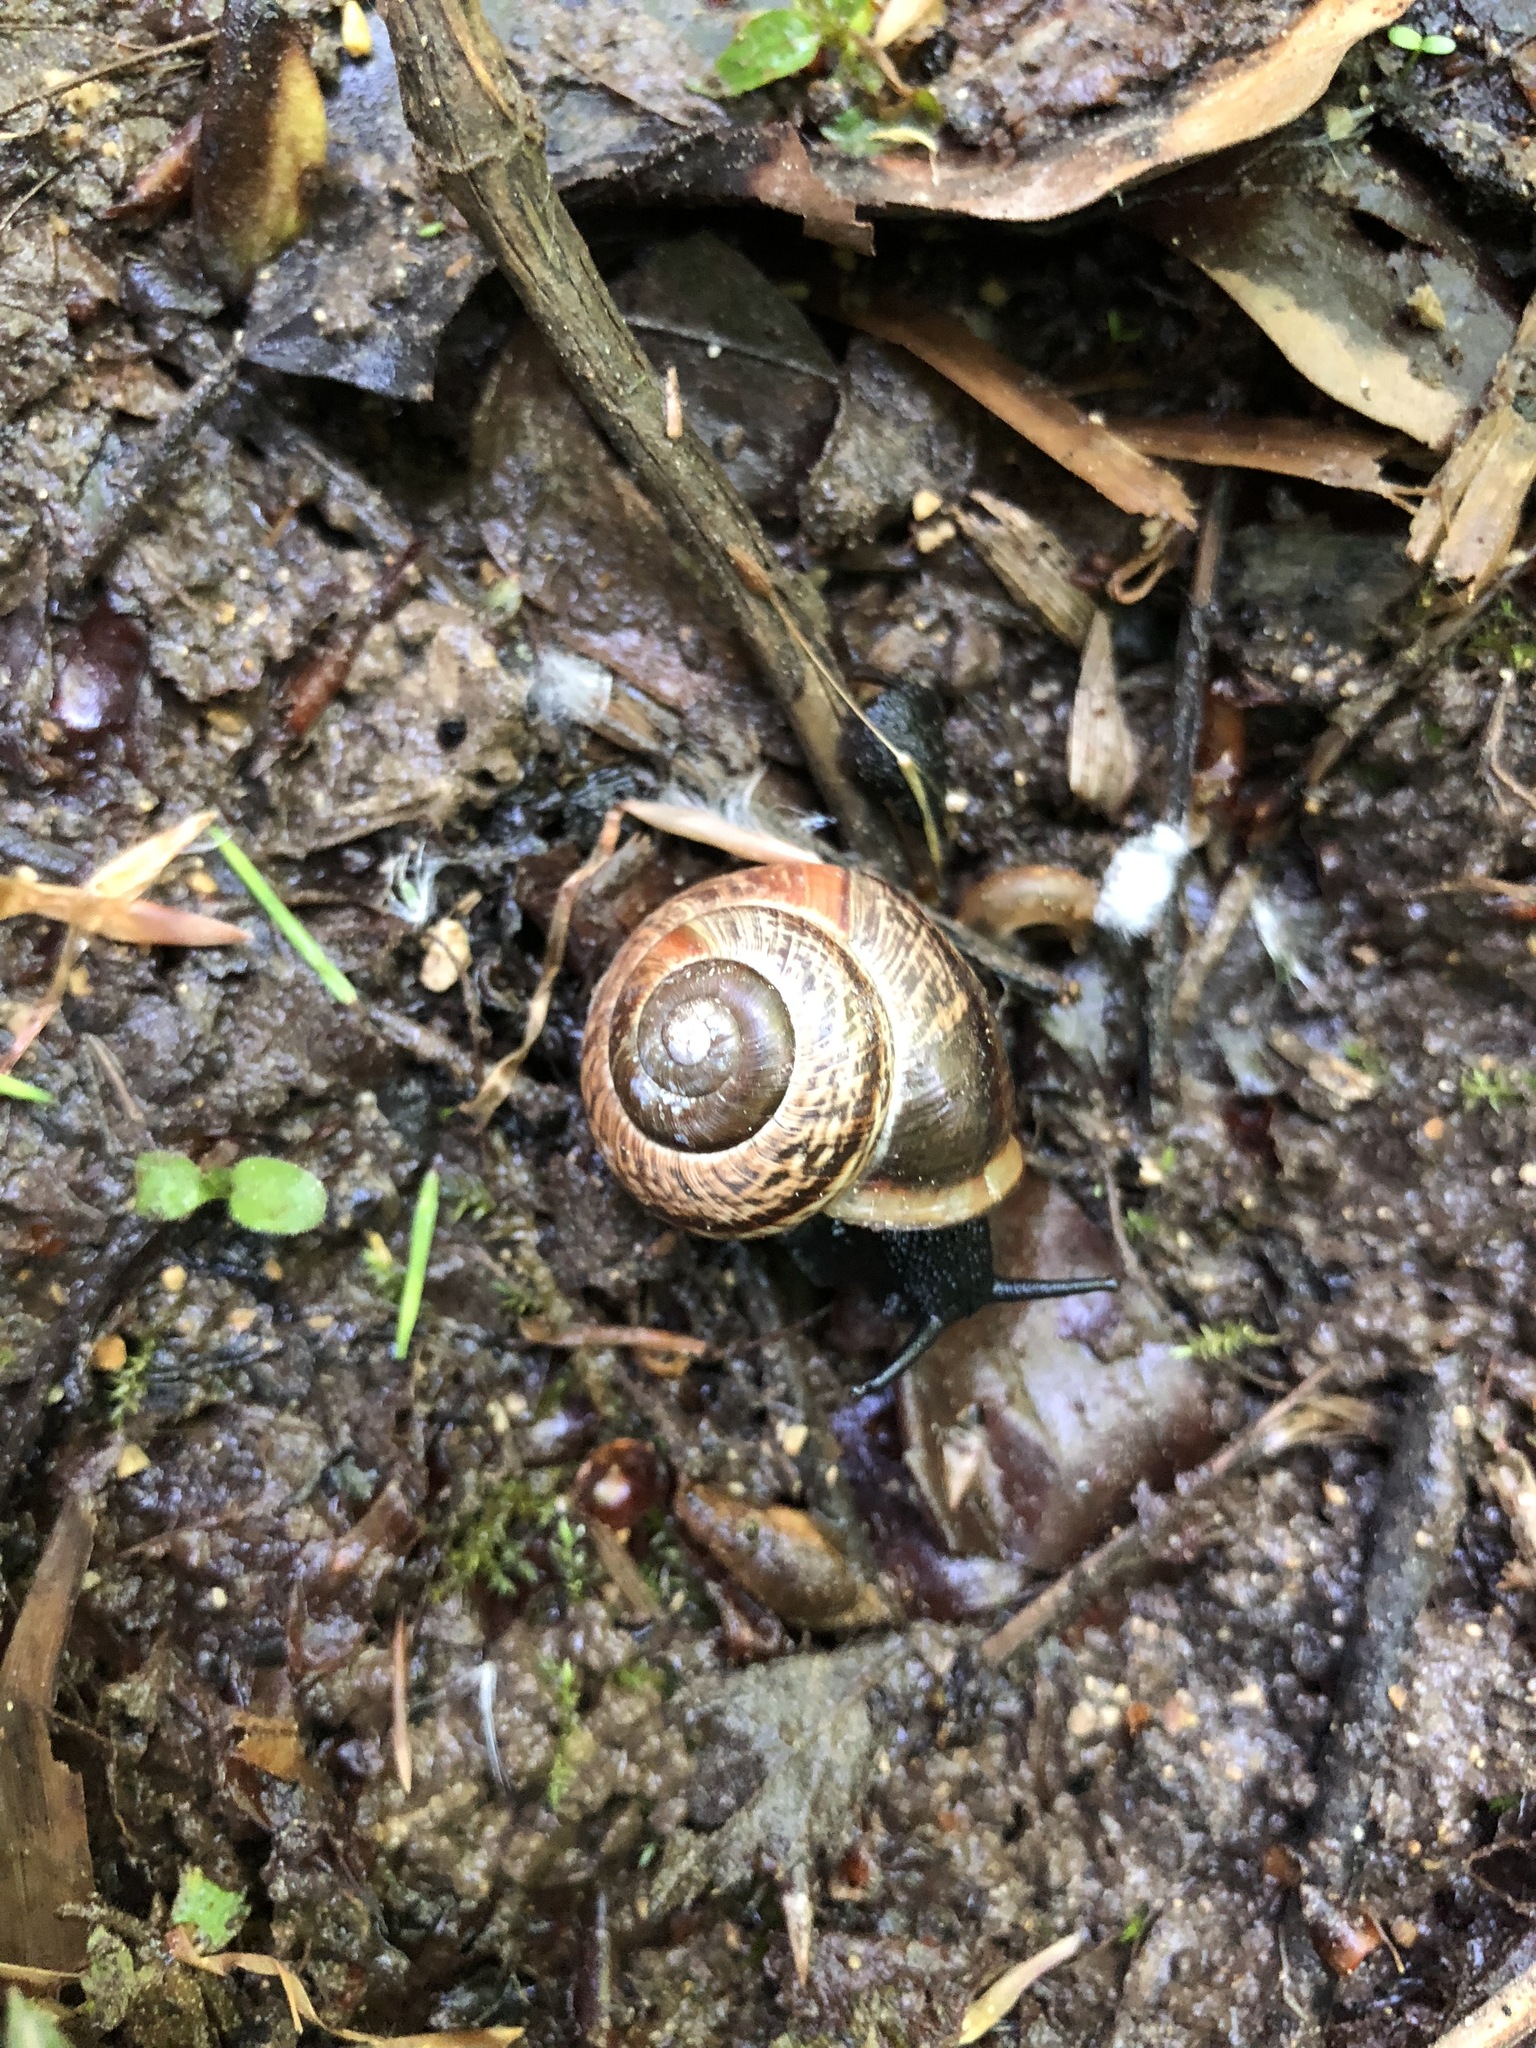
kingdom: Animalia
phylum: Mollusca
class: Gastropoda
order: Stylommatophora
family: Helicidae
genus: Arianta
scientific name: Arianta arbustorum
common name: Copse snail
